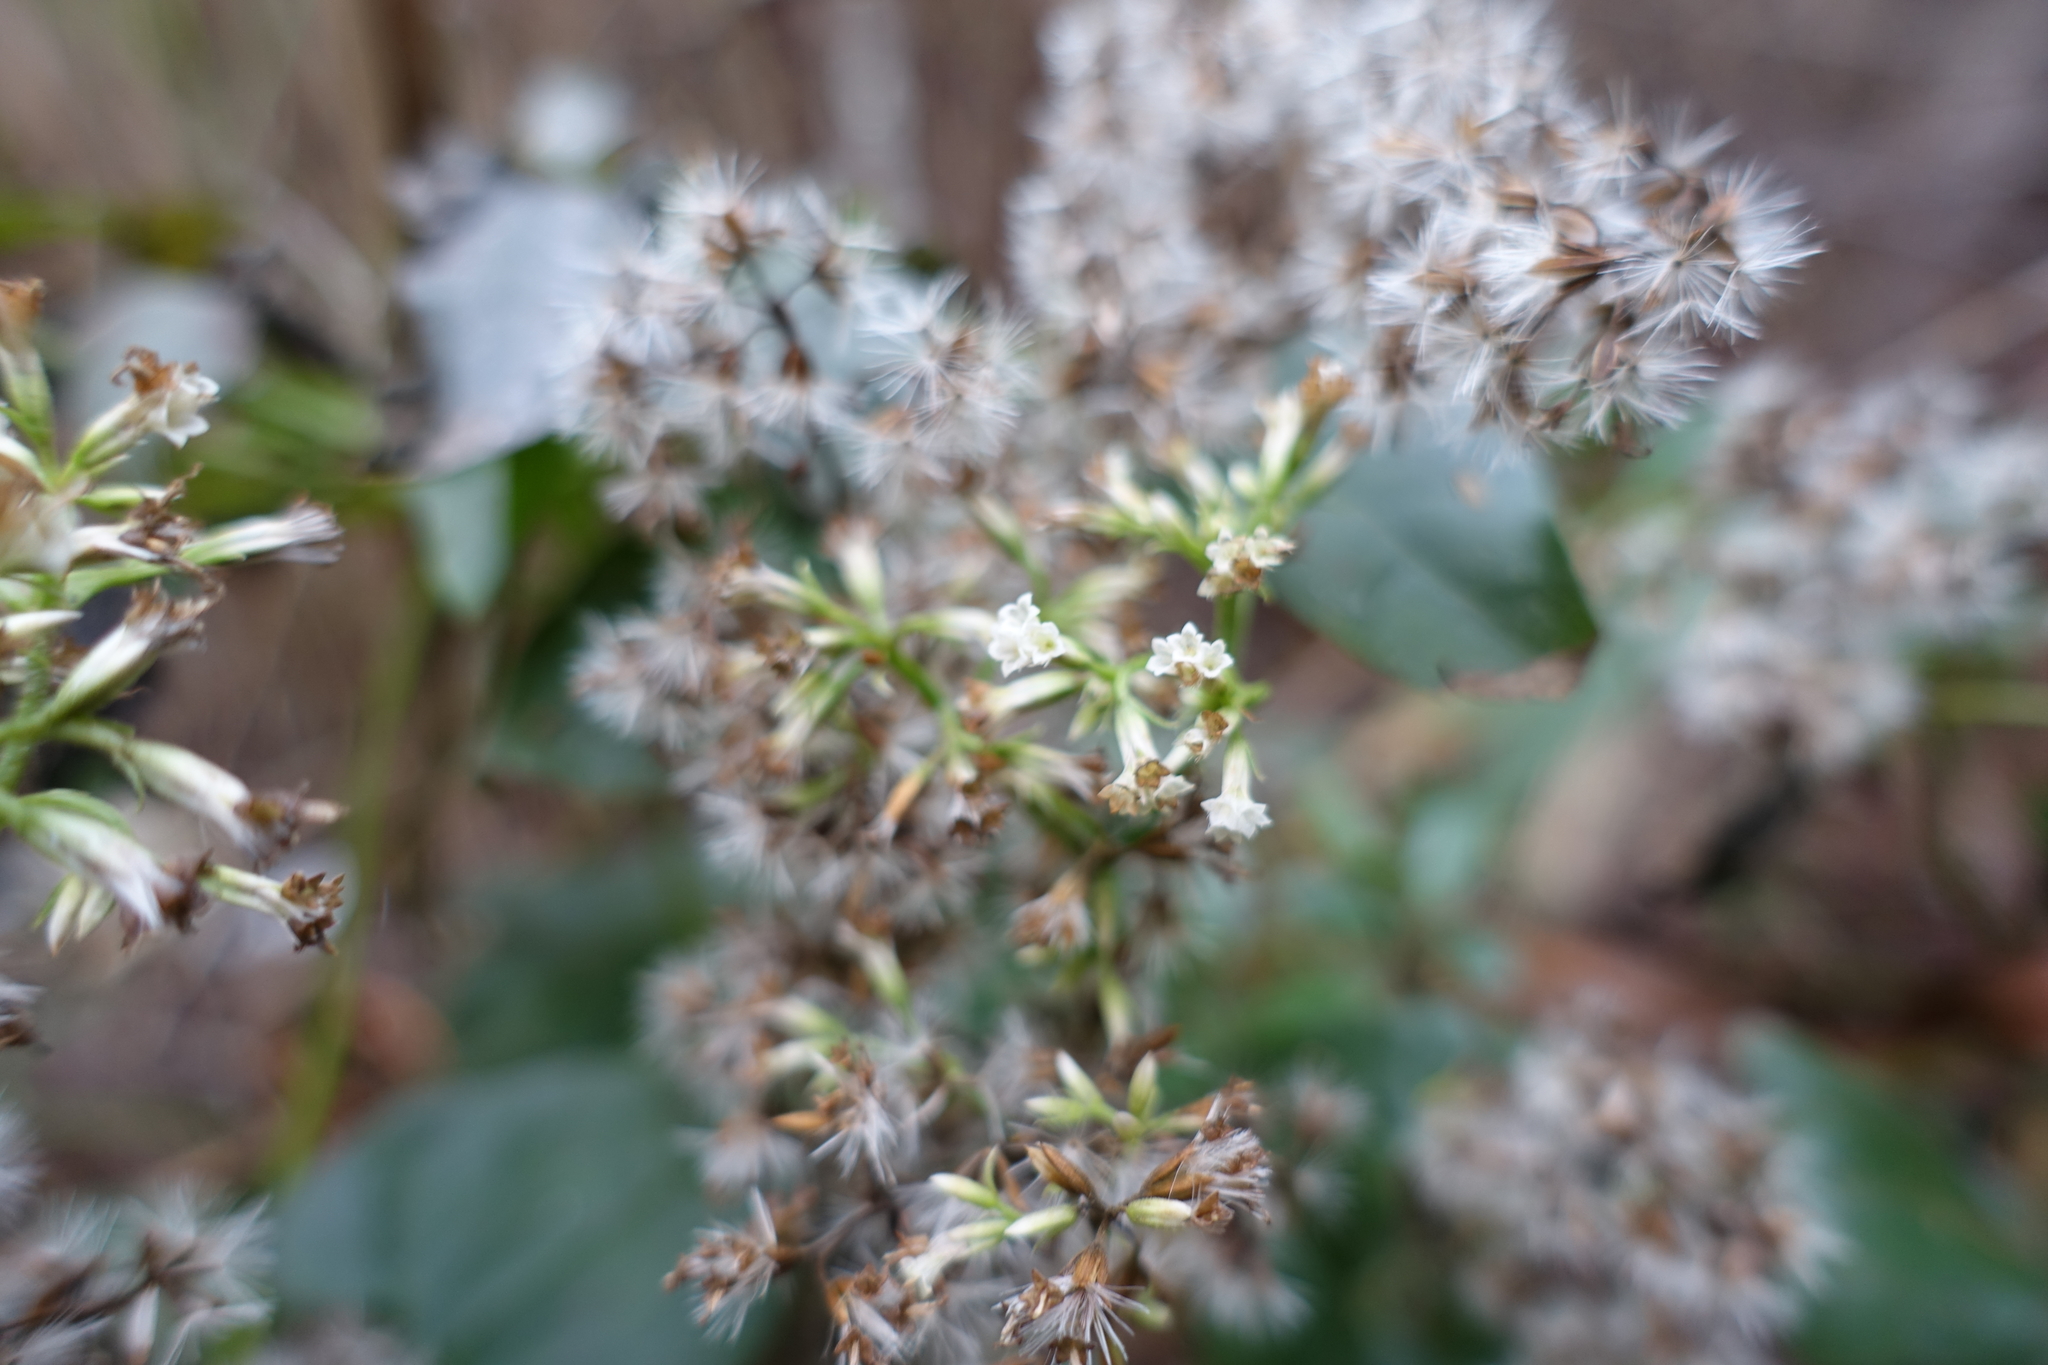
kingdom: Plantae
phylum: Tracheophyta
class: Magnoliopsida
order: Asterales
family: Asteraceae
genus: Mikania
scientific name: Mikania scandens
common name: Climbing hempvine
